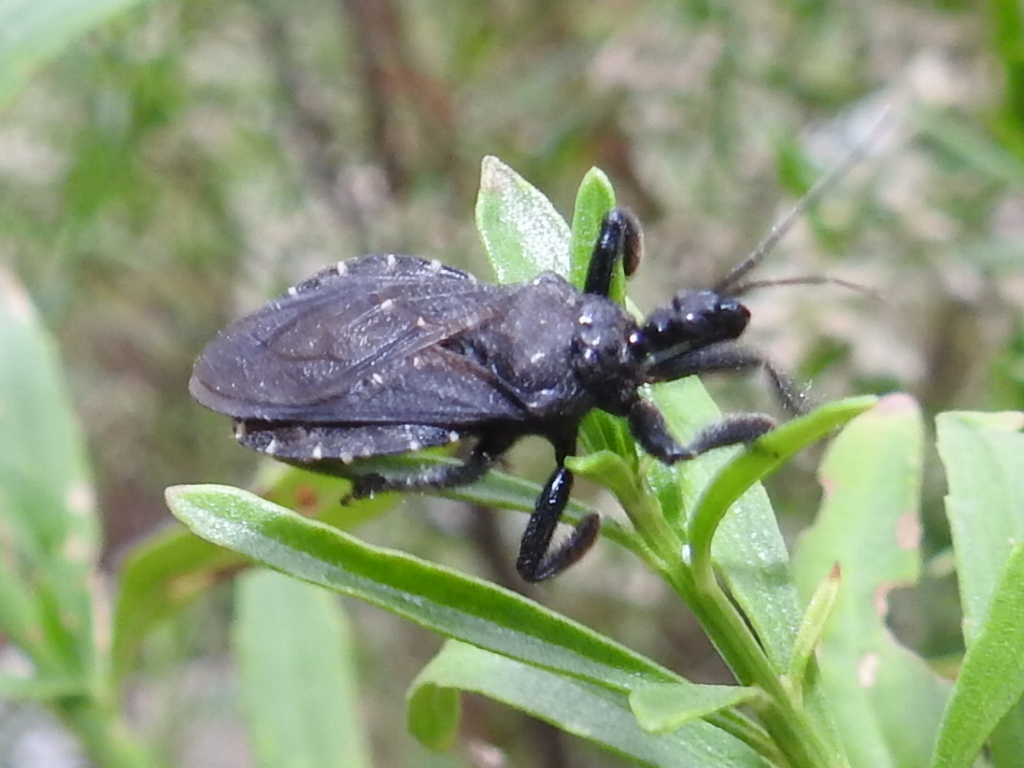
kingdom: Animalia
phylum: Arthropoda
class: Insecta
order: Hemiptera
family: Reduviidae
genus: Apiomerus
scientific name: Apiomerus longispinis
